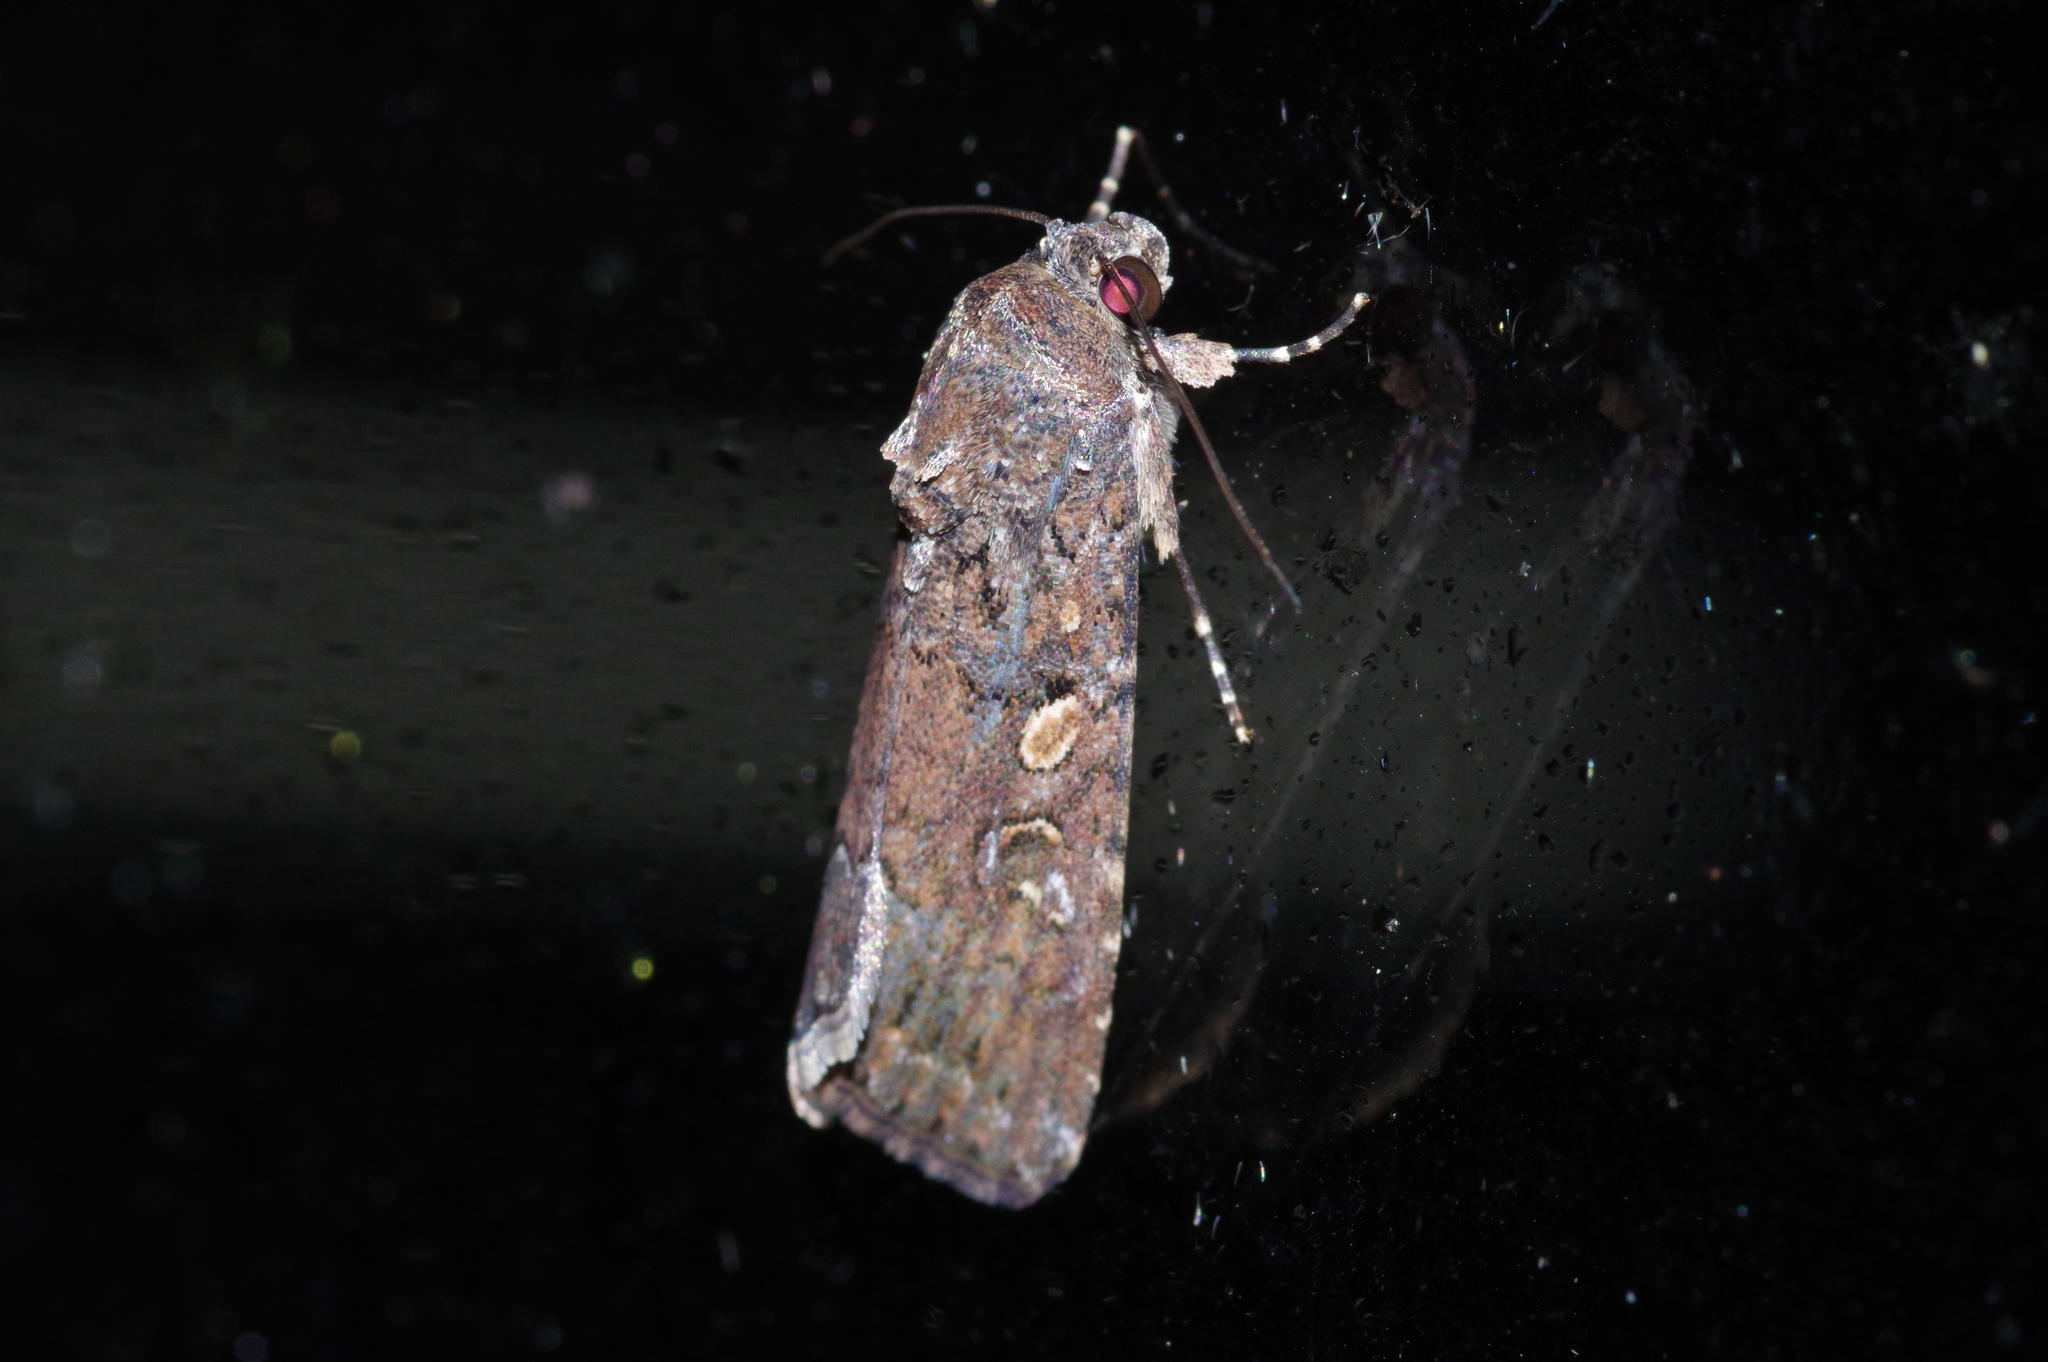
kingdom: Animalia
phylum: Arthropoda
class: Insecta
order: Lepidoptera
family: Noctuidae
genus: Spodoptera
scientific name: Spodoptera mauritia
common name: Lawn armyworm
